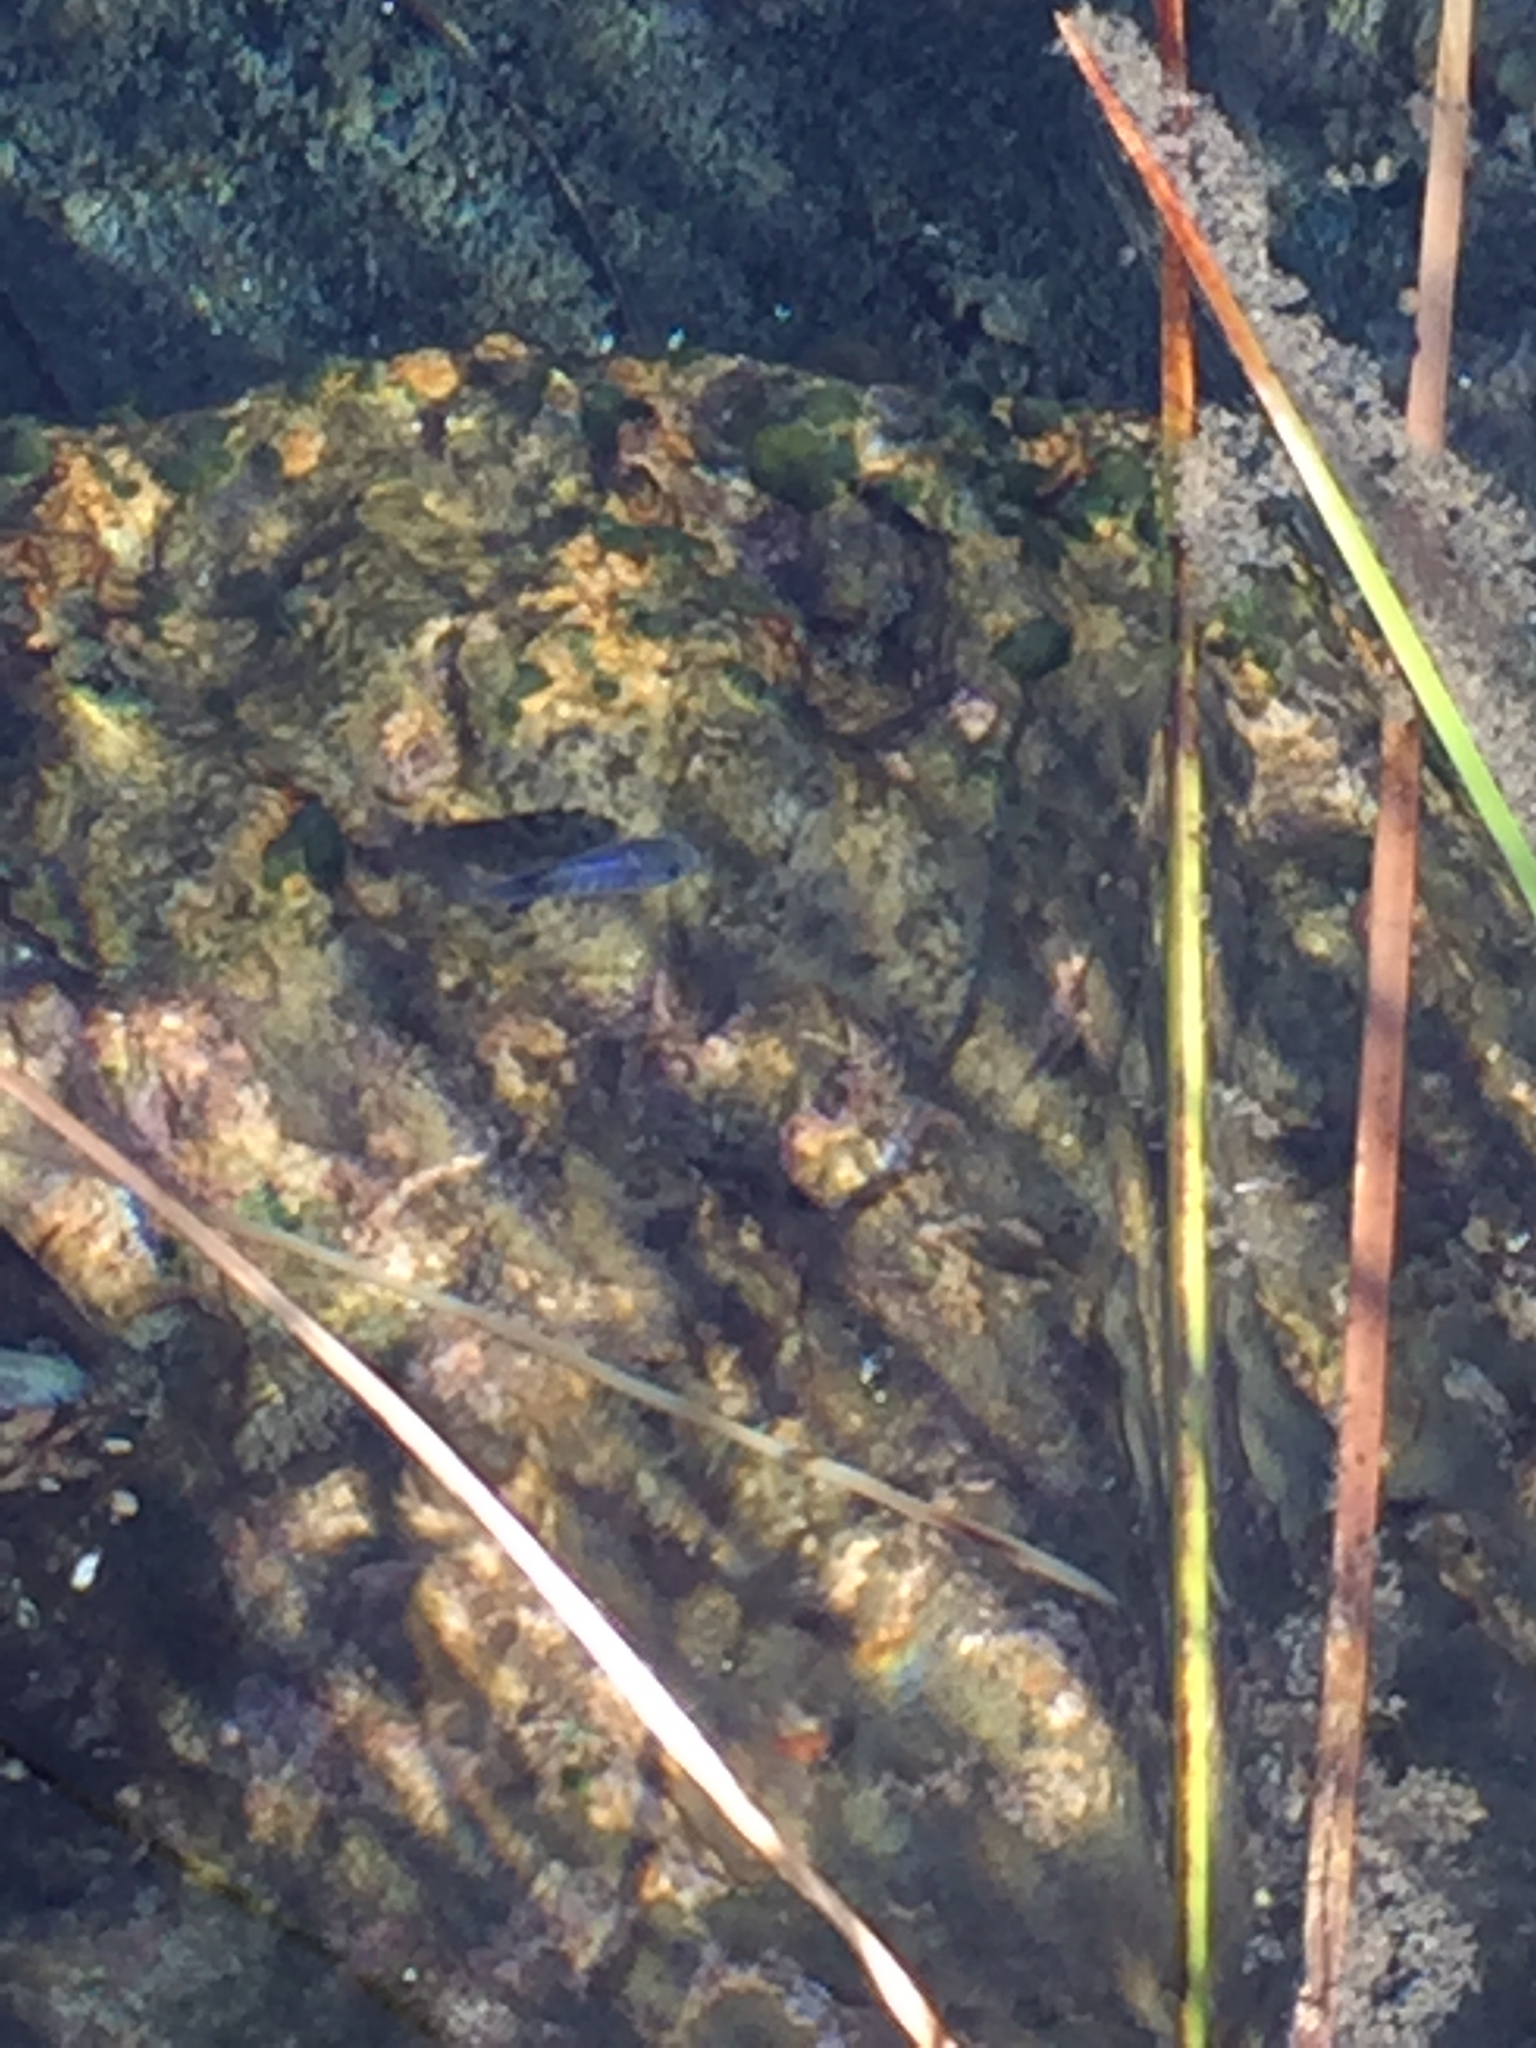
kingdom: Animalia
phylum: Chordata
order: Cyprinodontiformes
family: Cyprinodontidae
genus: Cyprinodon
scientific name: Cyprinodon nevadensis
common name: Amargosa pupfish
